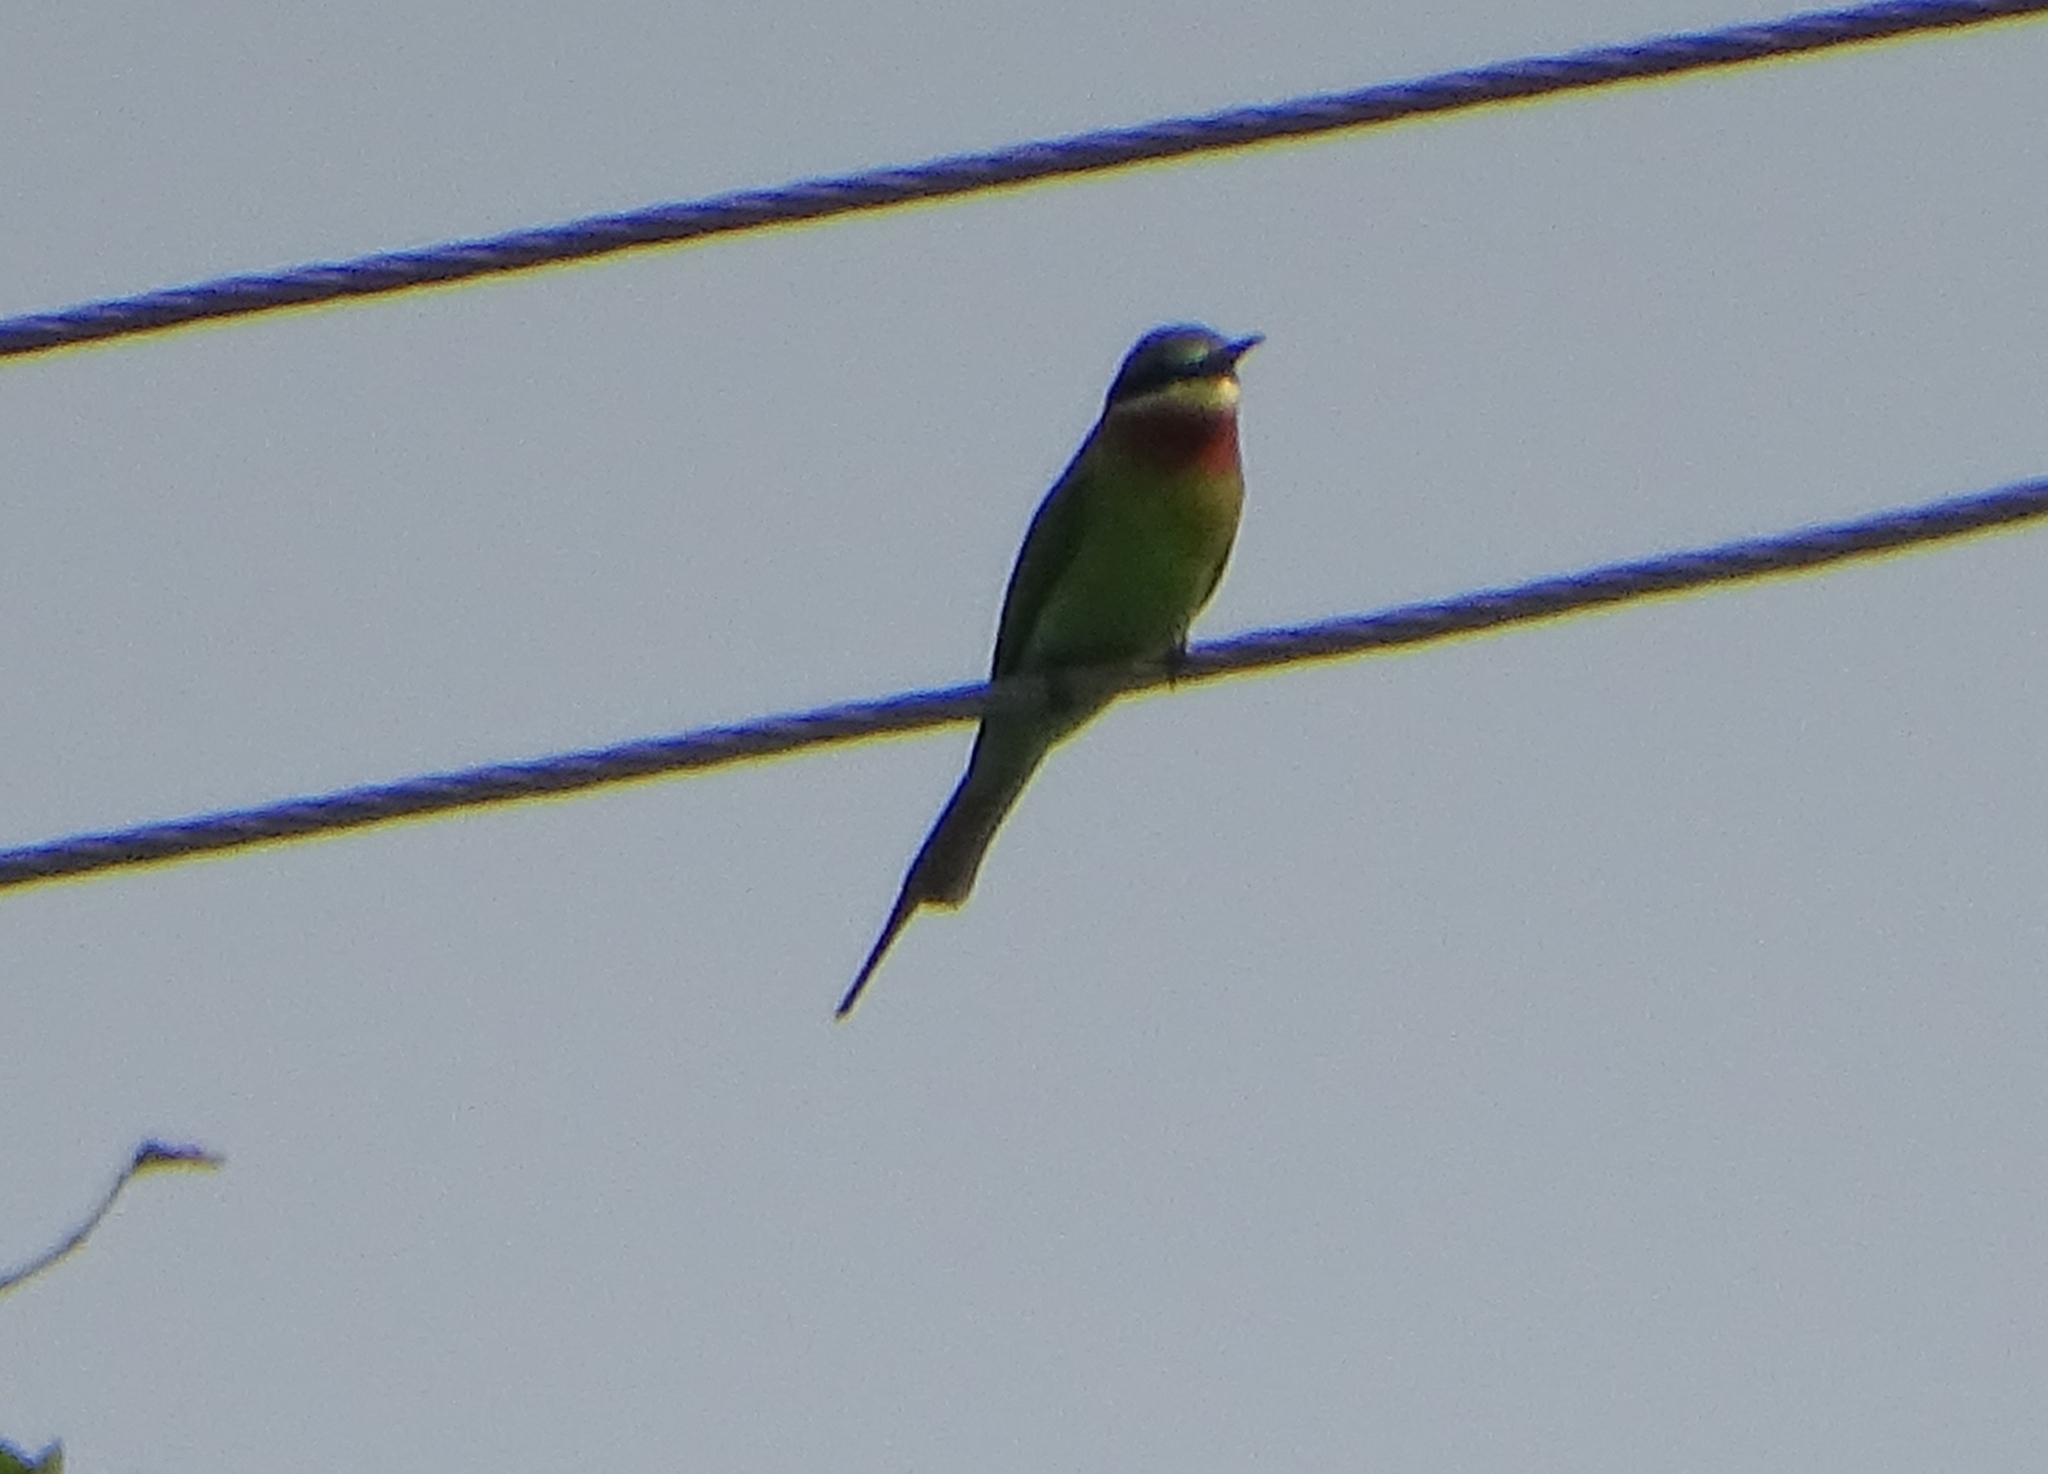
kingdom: Animalia
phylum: Chordata
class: Aves
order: Coraciiformes
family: Meropidae
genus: Merops
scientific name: Merops philippinus
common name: Blue-tailed bee-eater
